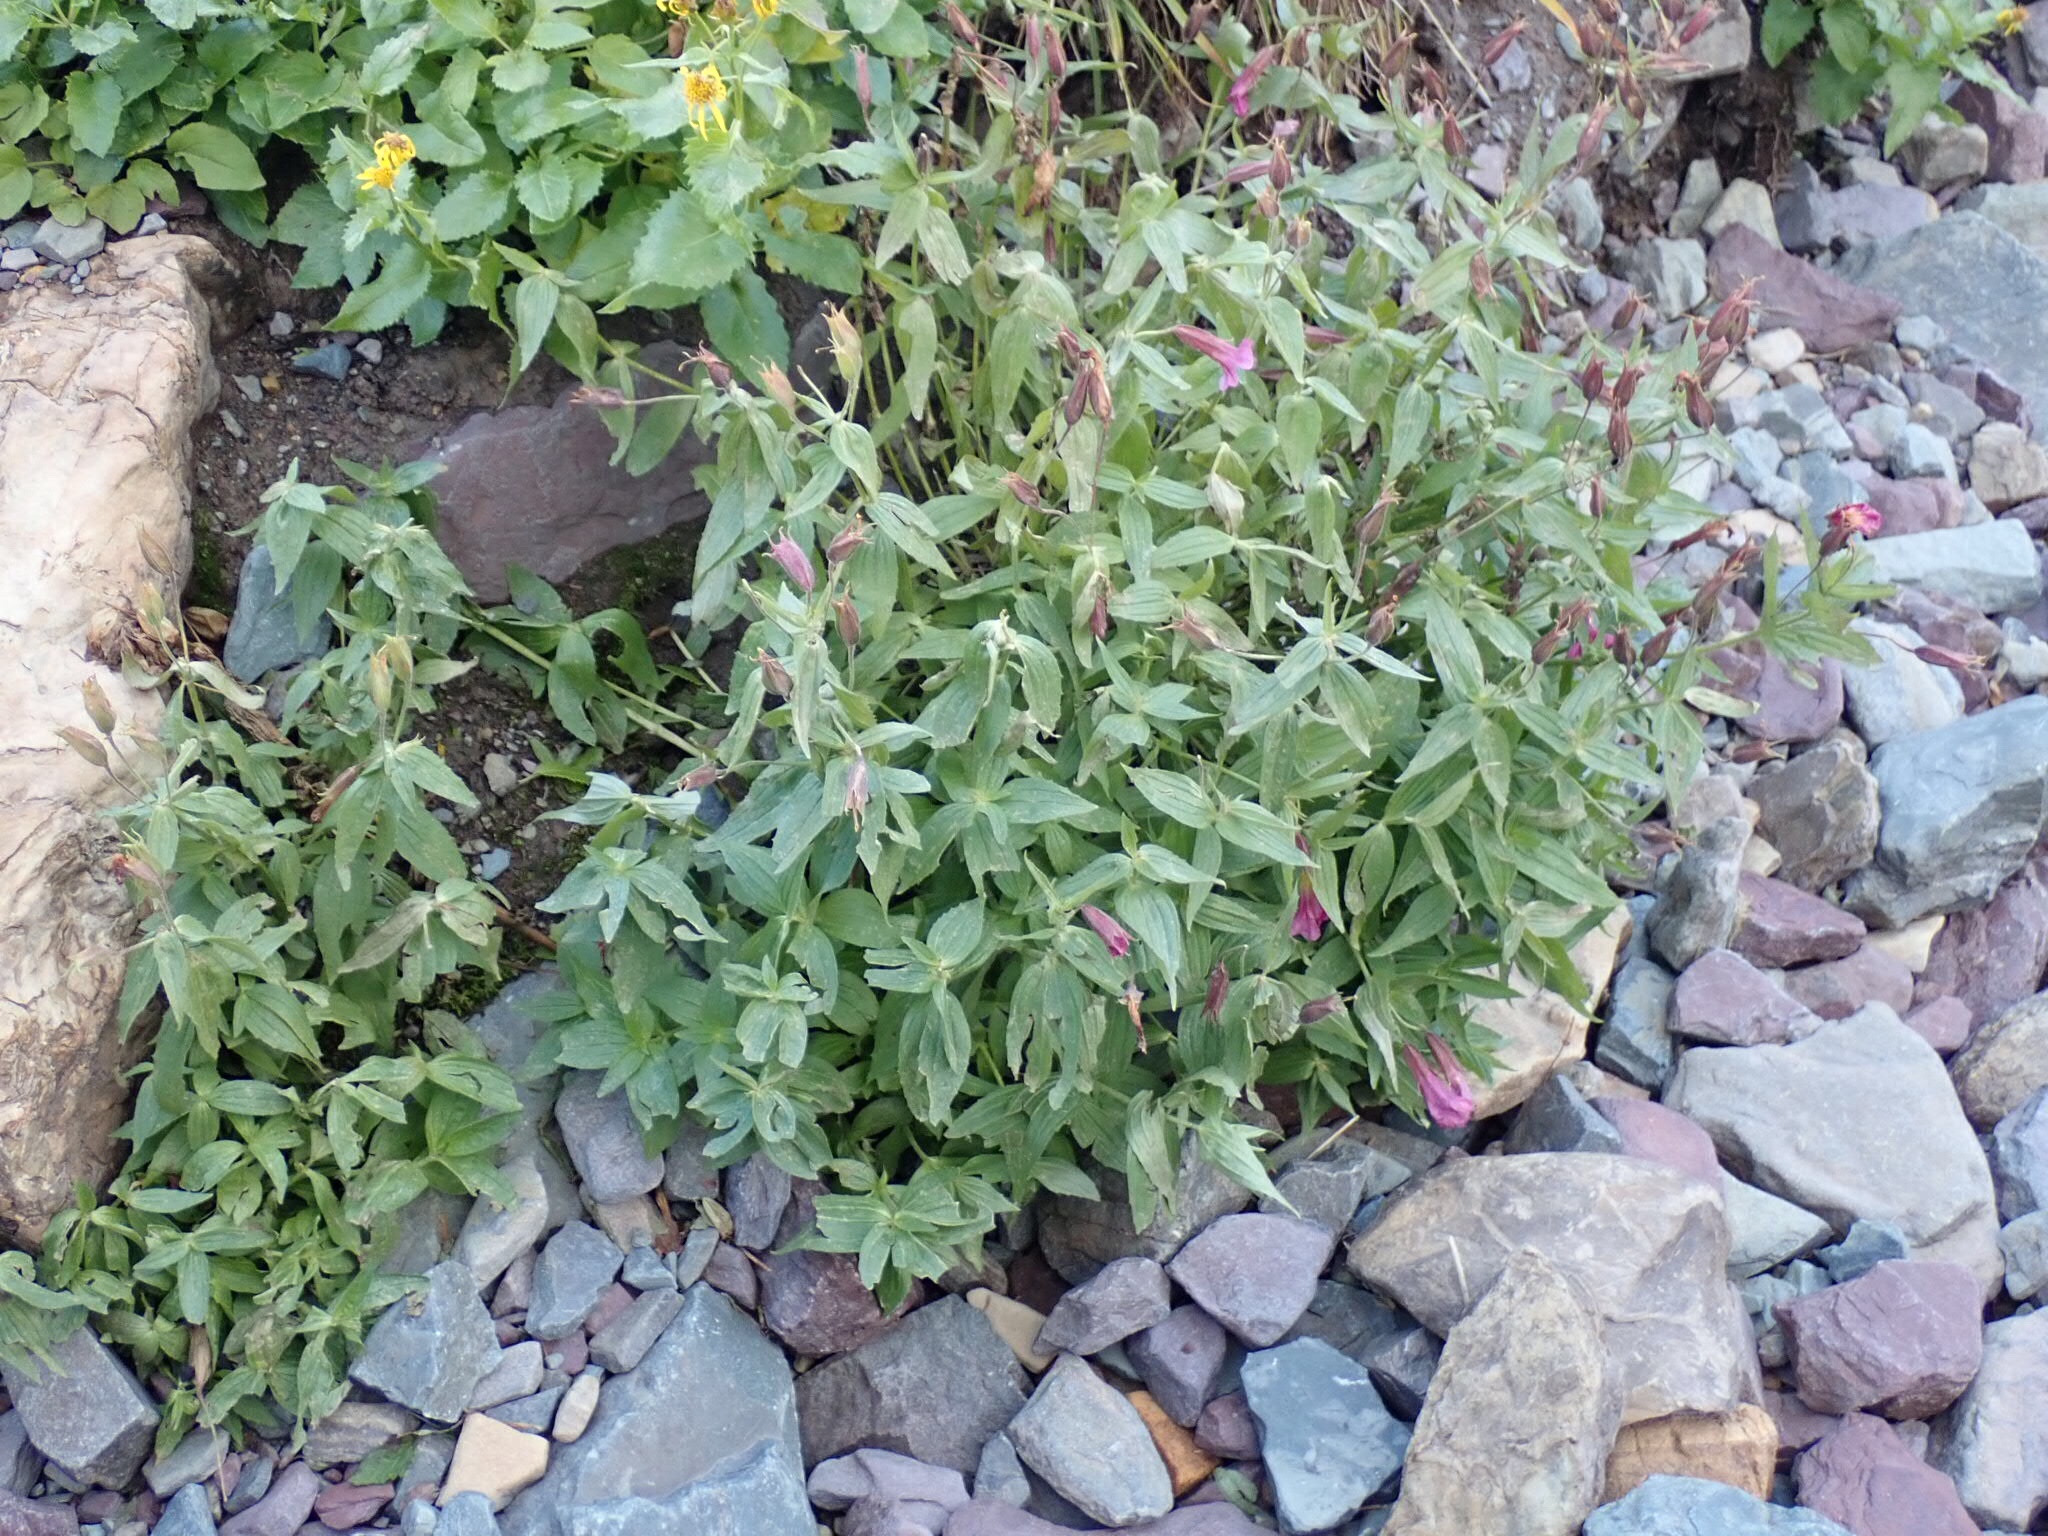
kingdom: Plantae
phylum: Tracheophyta
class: Magnoliopsida
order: Lamiales
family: Phrymaceae
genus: Erythranthe
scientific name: Erythranthe lewisii
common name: Lewis's monkey-flower
